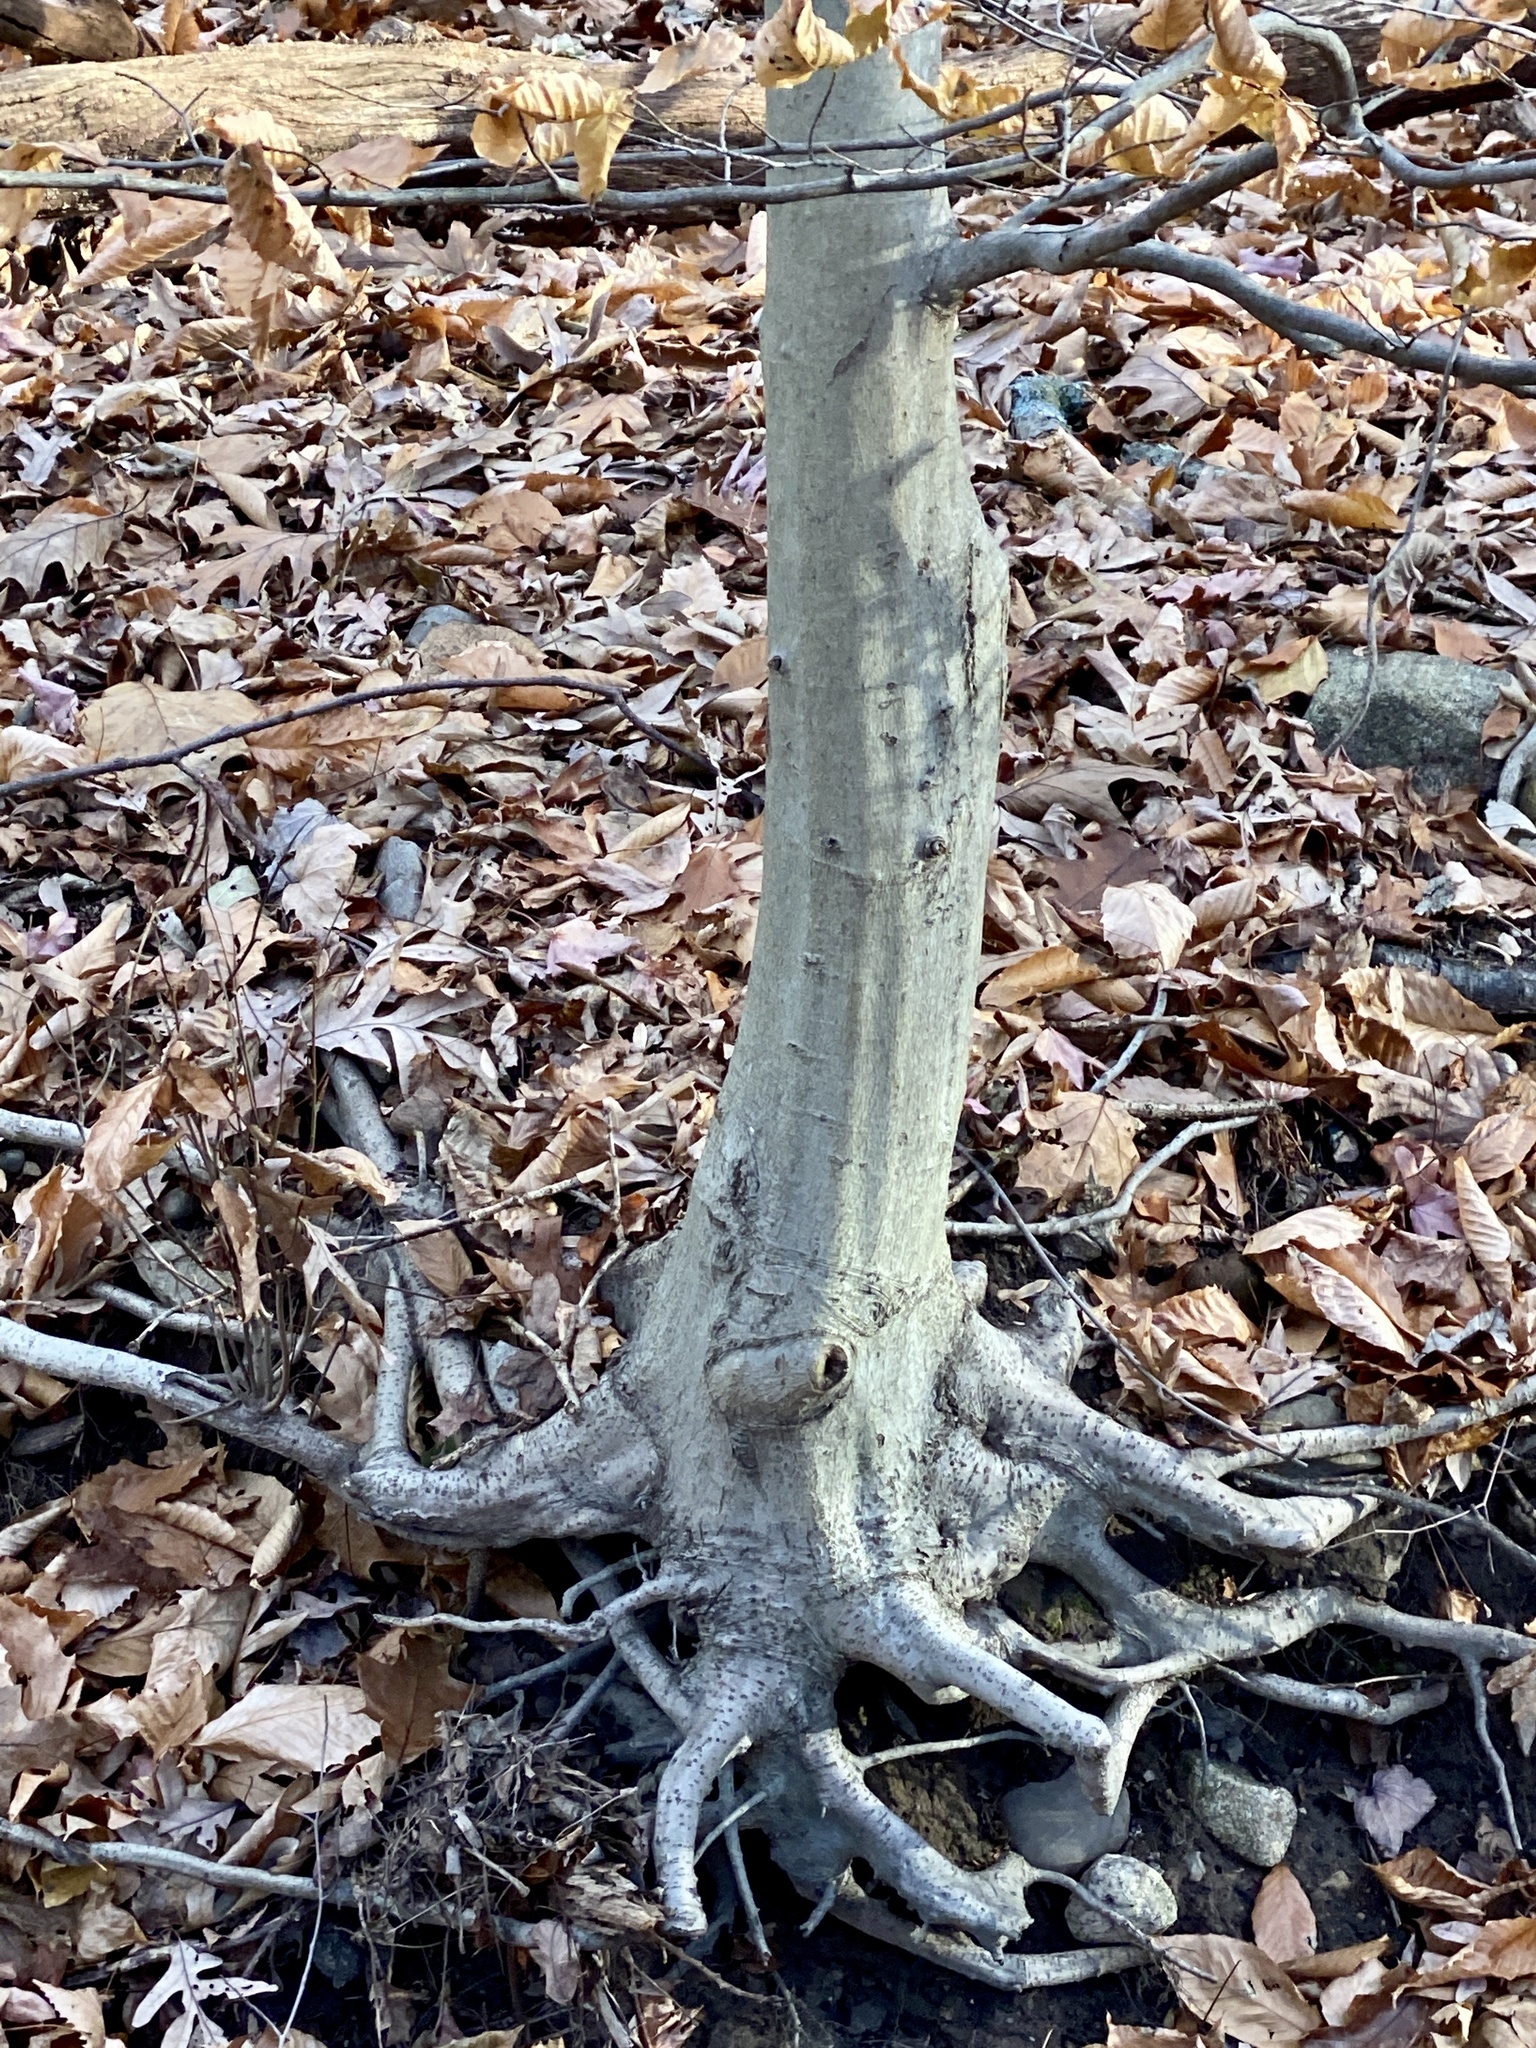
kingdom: Plantae
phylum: Tracheophyta
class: Magnoliopsida
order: Fagales
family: Fagaceae
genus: Fagus
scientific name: Fagus grandifolia
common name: American beech
